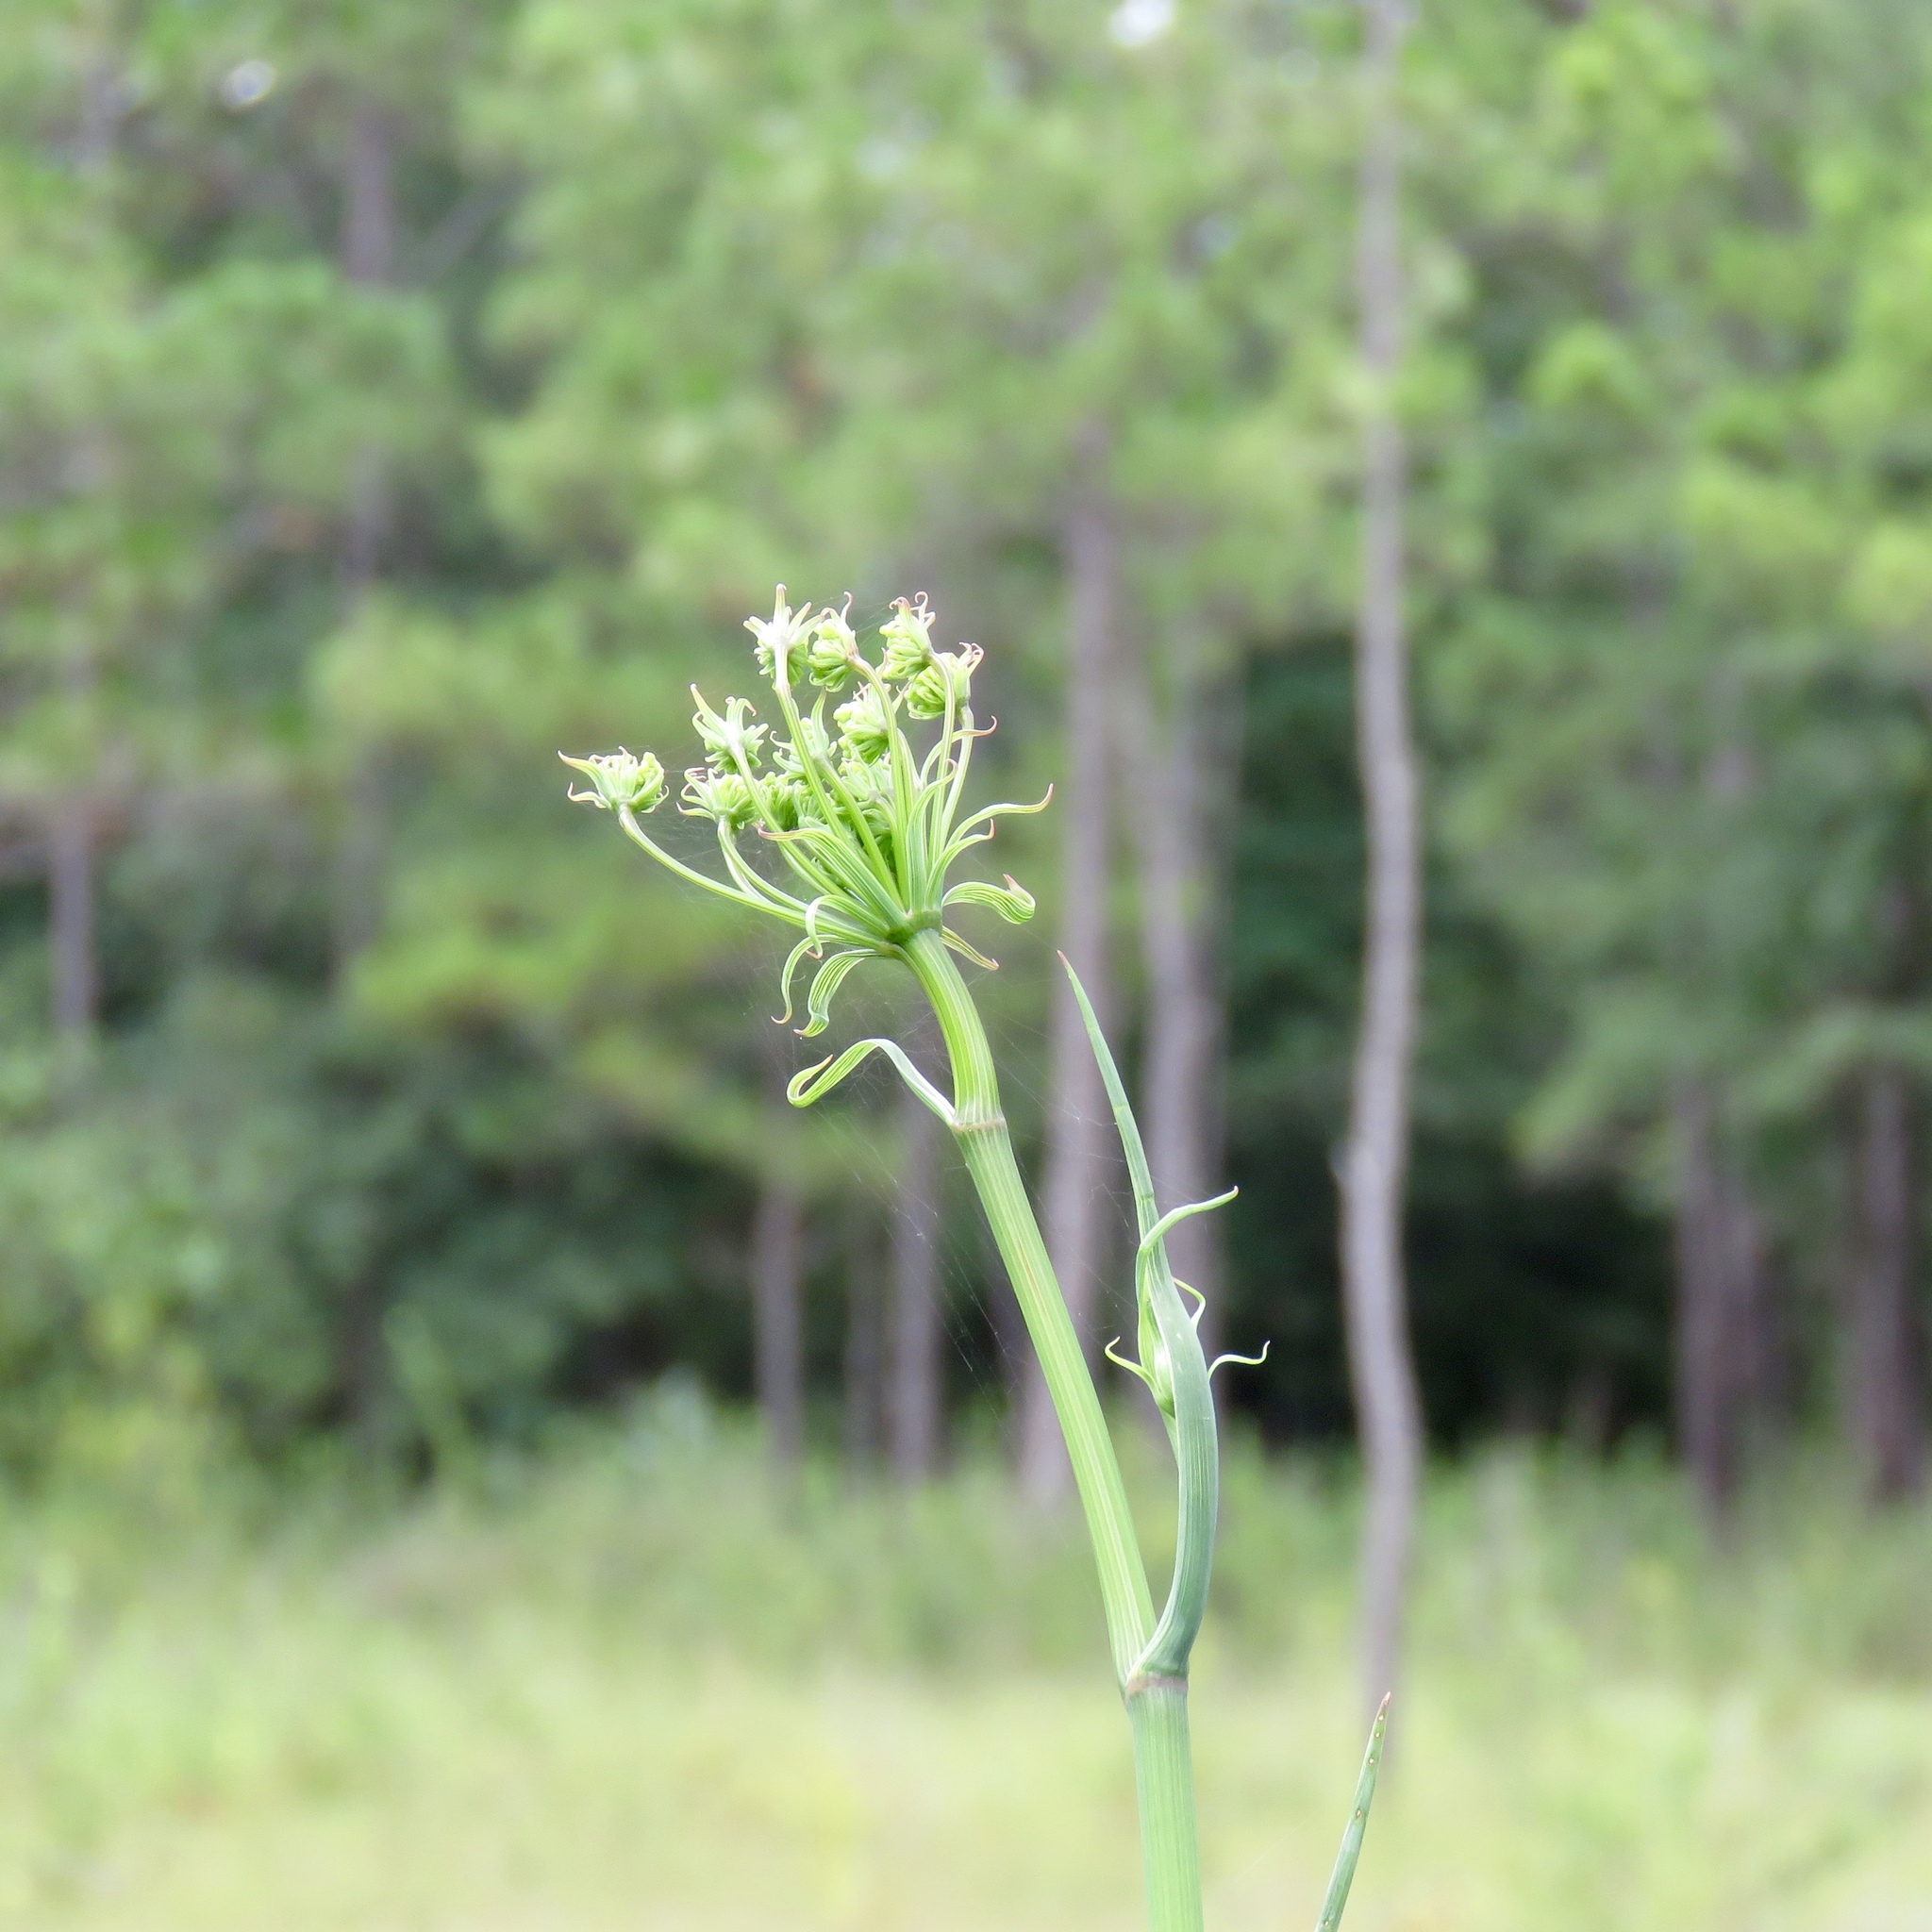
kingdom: Plantae
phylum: Tracheophyta
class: Magnoliopsida
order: Apiales
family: Apiaceae
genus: Tiedemannia
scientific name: Tiedemannia filiformis
